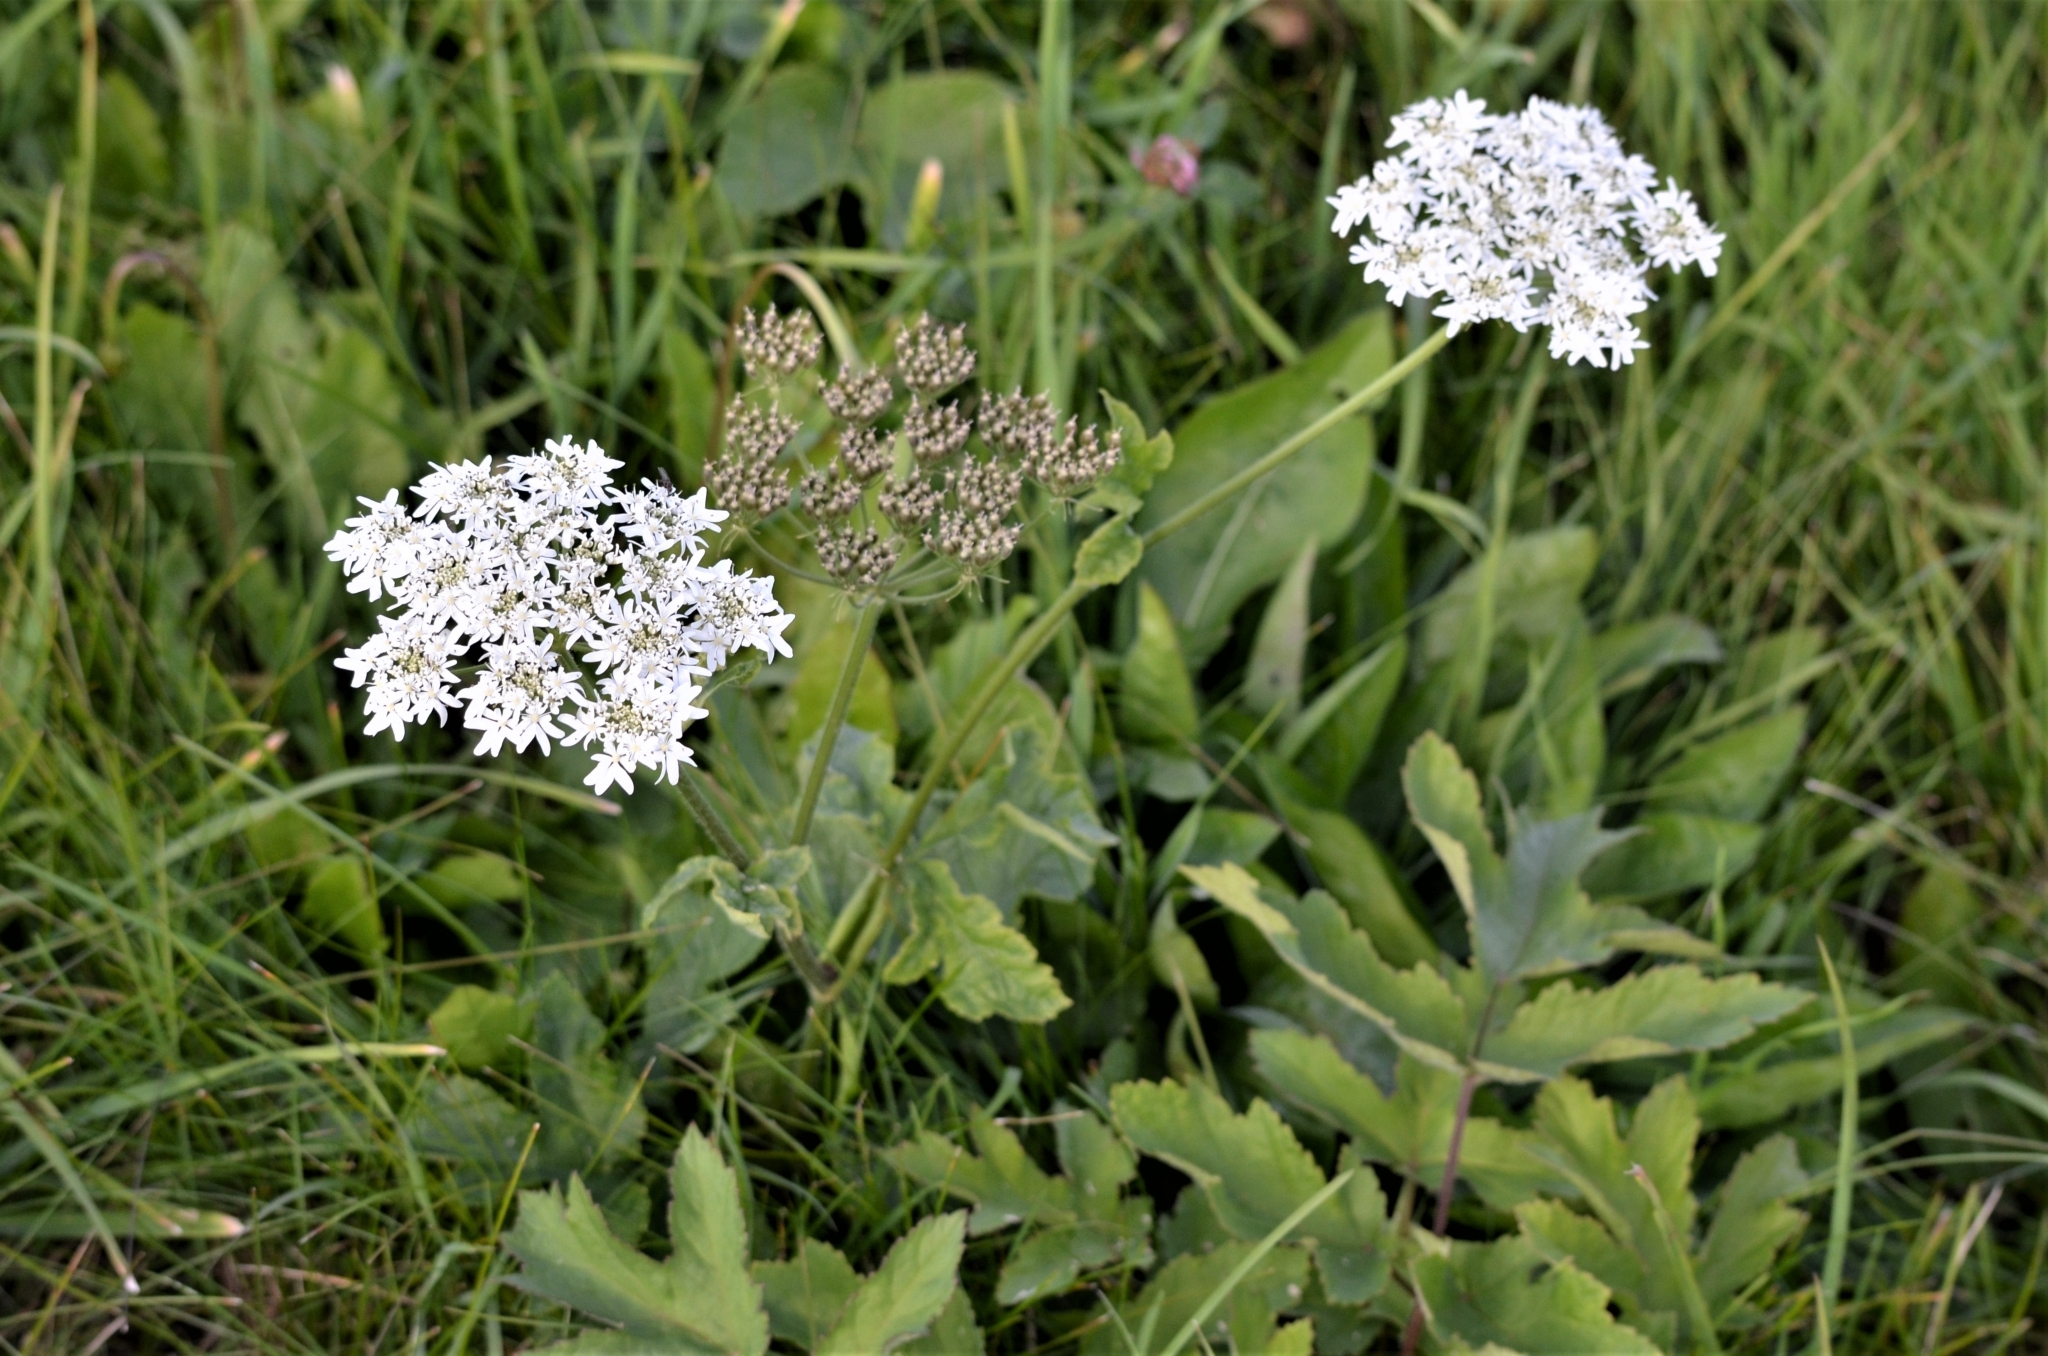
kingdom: Plantae
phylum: Tracheophyta
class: Magnoliopsida
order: Apiales
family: Apiaceae
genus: Heracleum
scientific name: Heracleum sphondylium
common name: Hogweed
